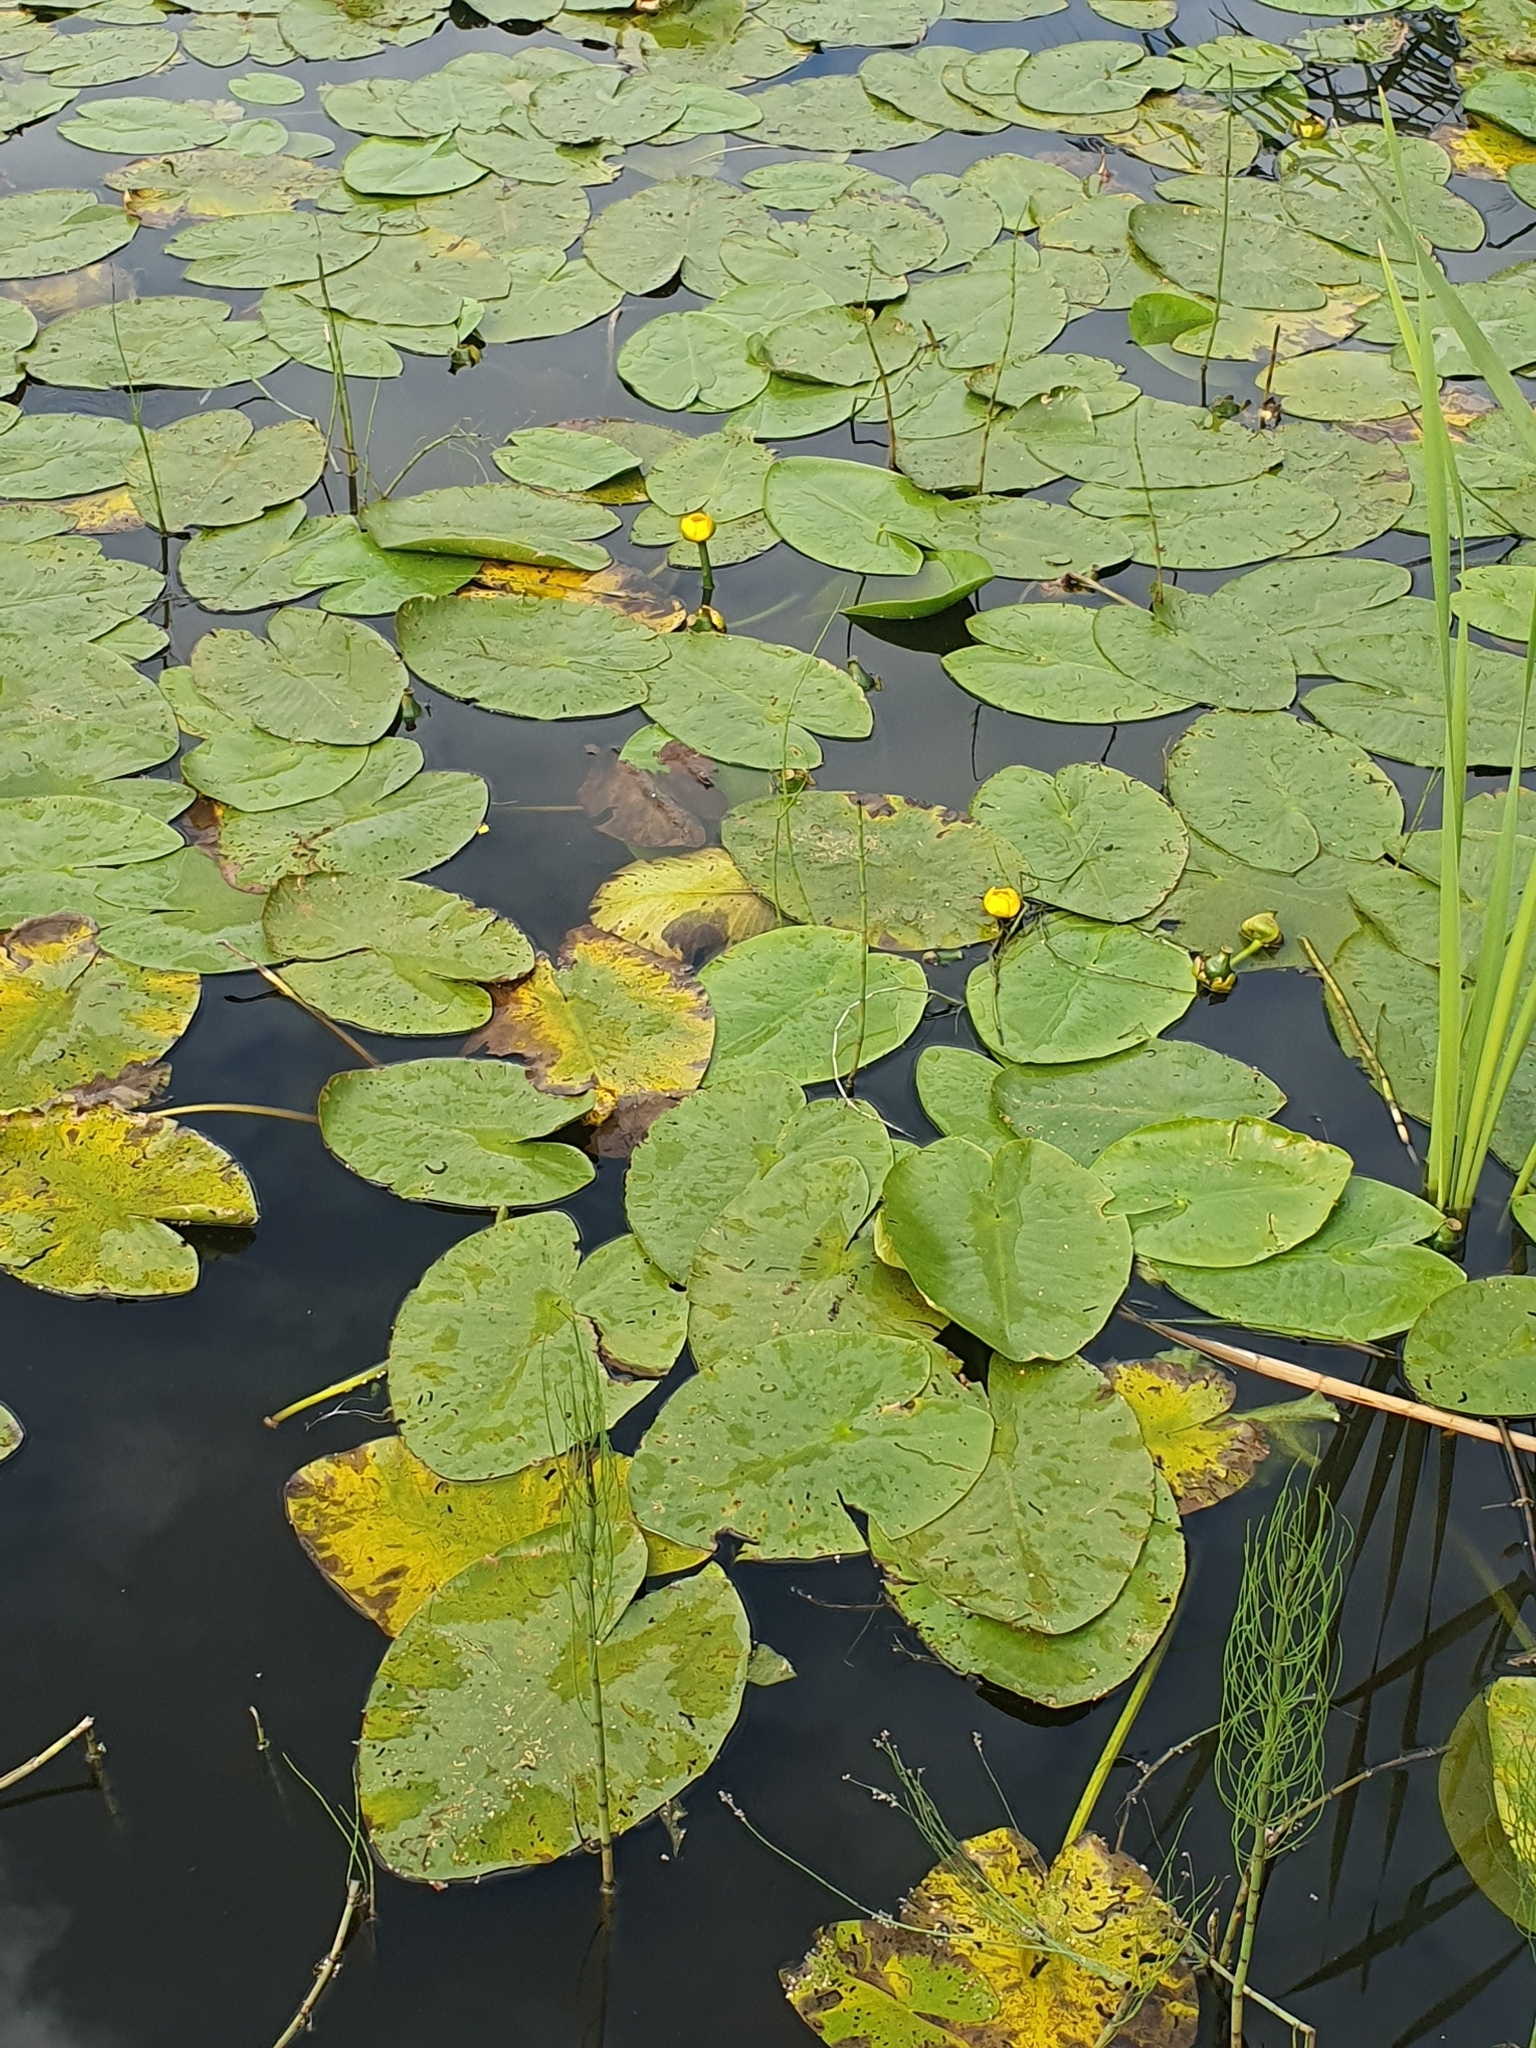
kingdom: Plantae
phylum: Tracheophyta
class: Magnoliopsida
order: Nymphaeales
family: Nymphaeaceae
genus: Nuphar
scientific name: Nuphar lutea
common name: Yellow water-lily
